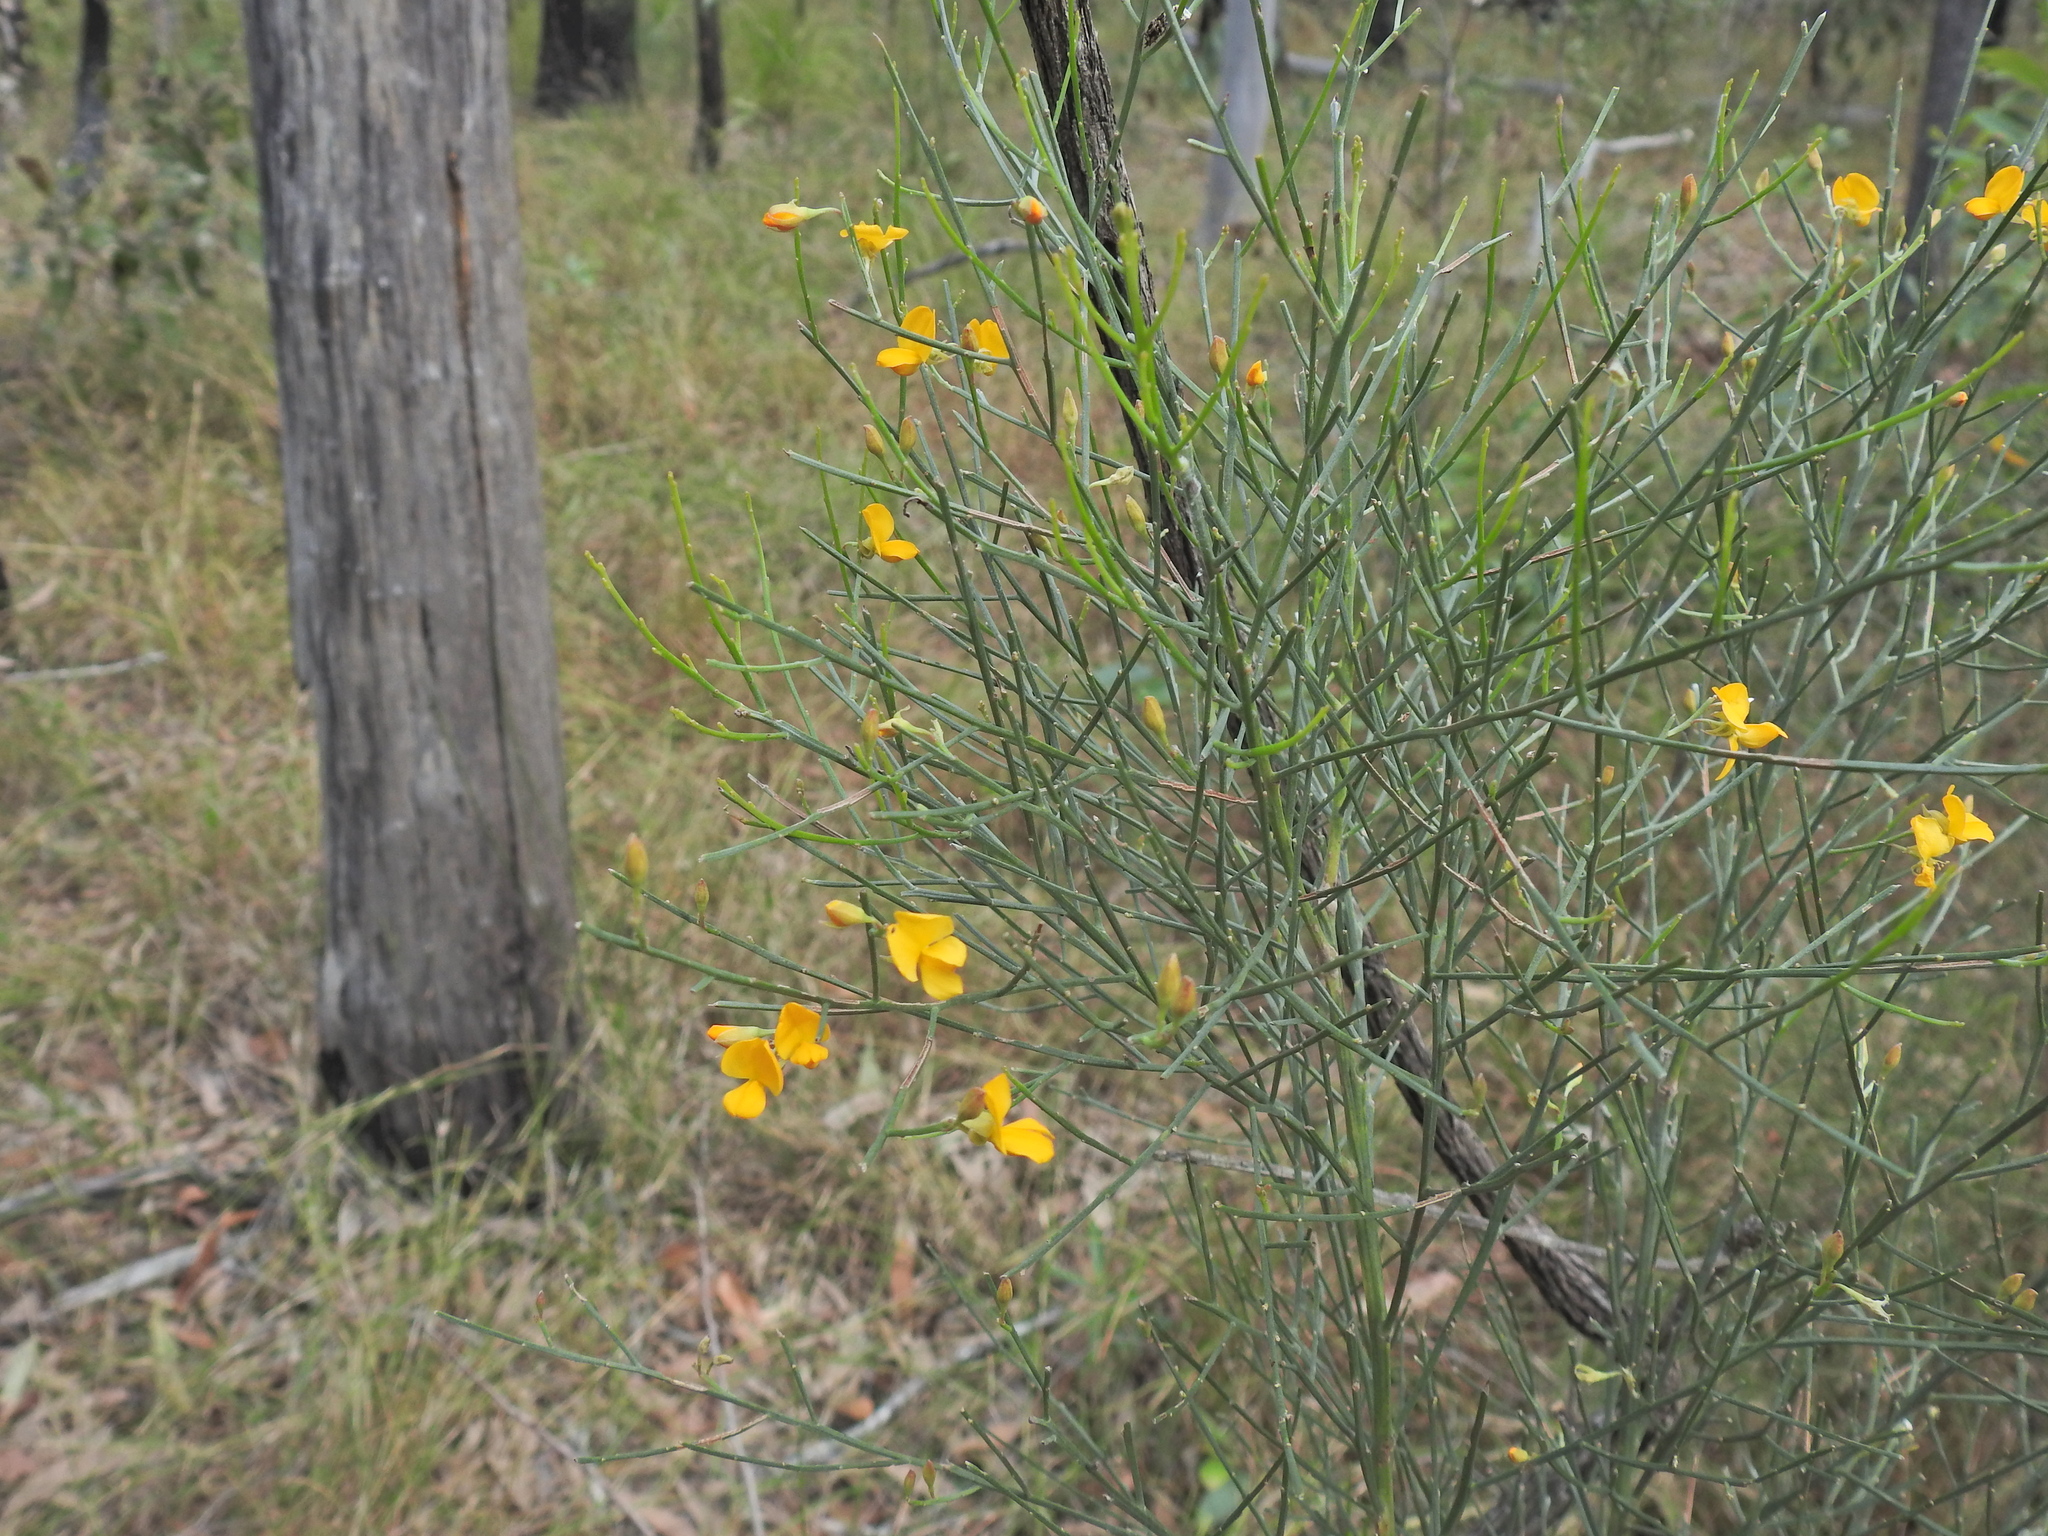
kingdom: Plantae
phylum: Tracheophyta
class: Magnoliopsida
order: Fabales
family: Fabaceae
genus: Jacksonia
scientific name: Jacksonia scoparia
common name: Dogwood
